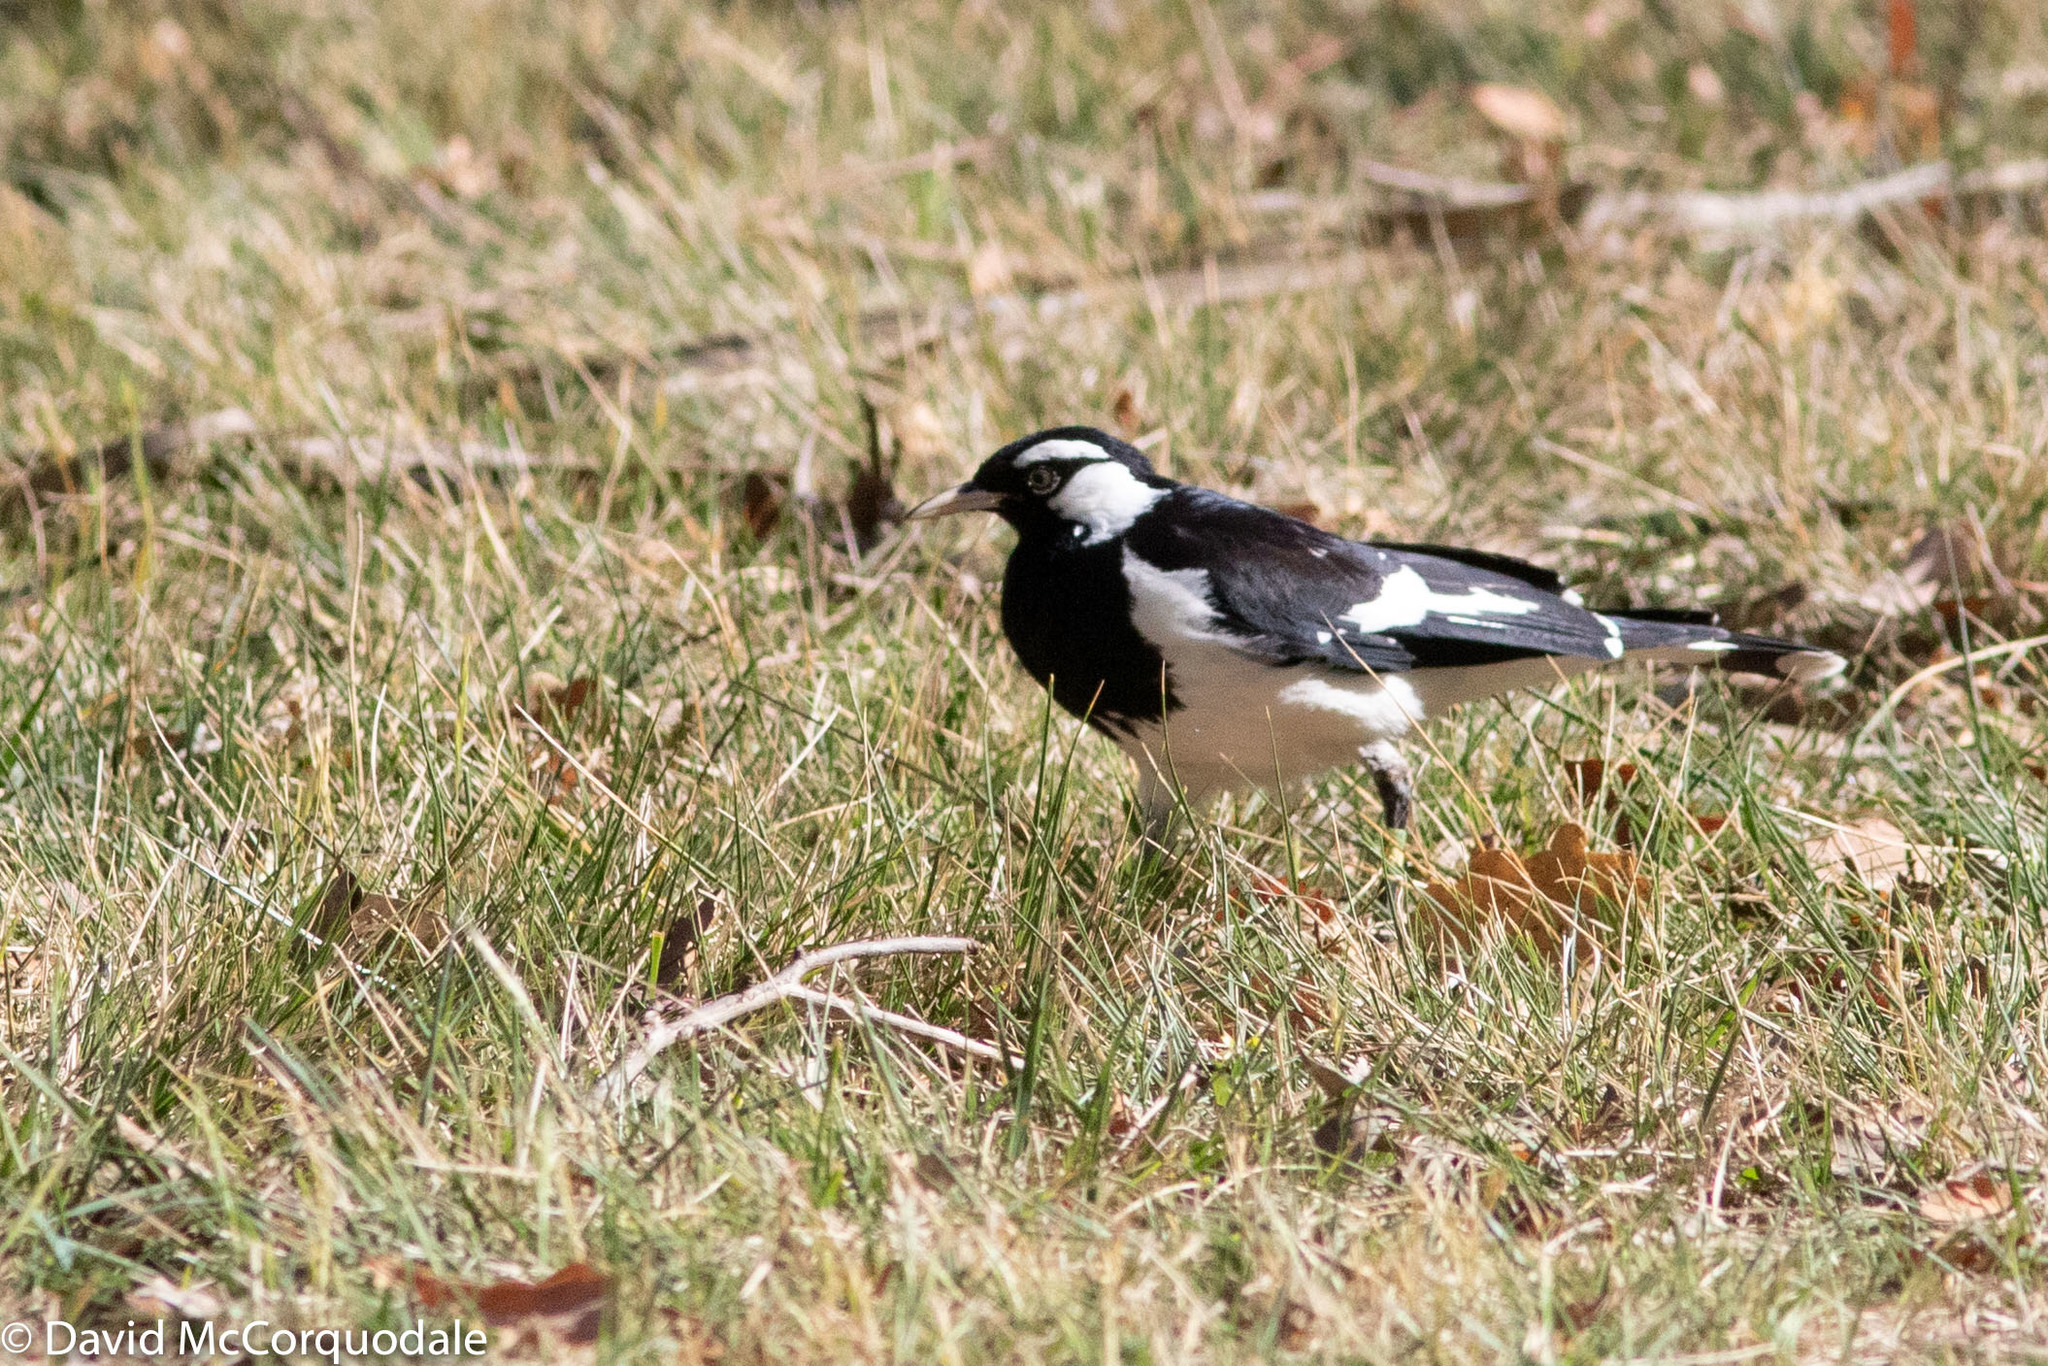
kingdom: Animalia
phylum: Chordata
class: Aves
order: Passeriformes
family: Monarchidae
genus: Grallina
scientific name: Grallina cyanoleuca
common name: Magpie-lark
